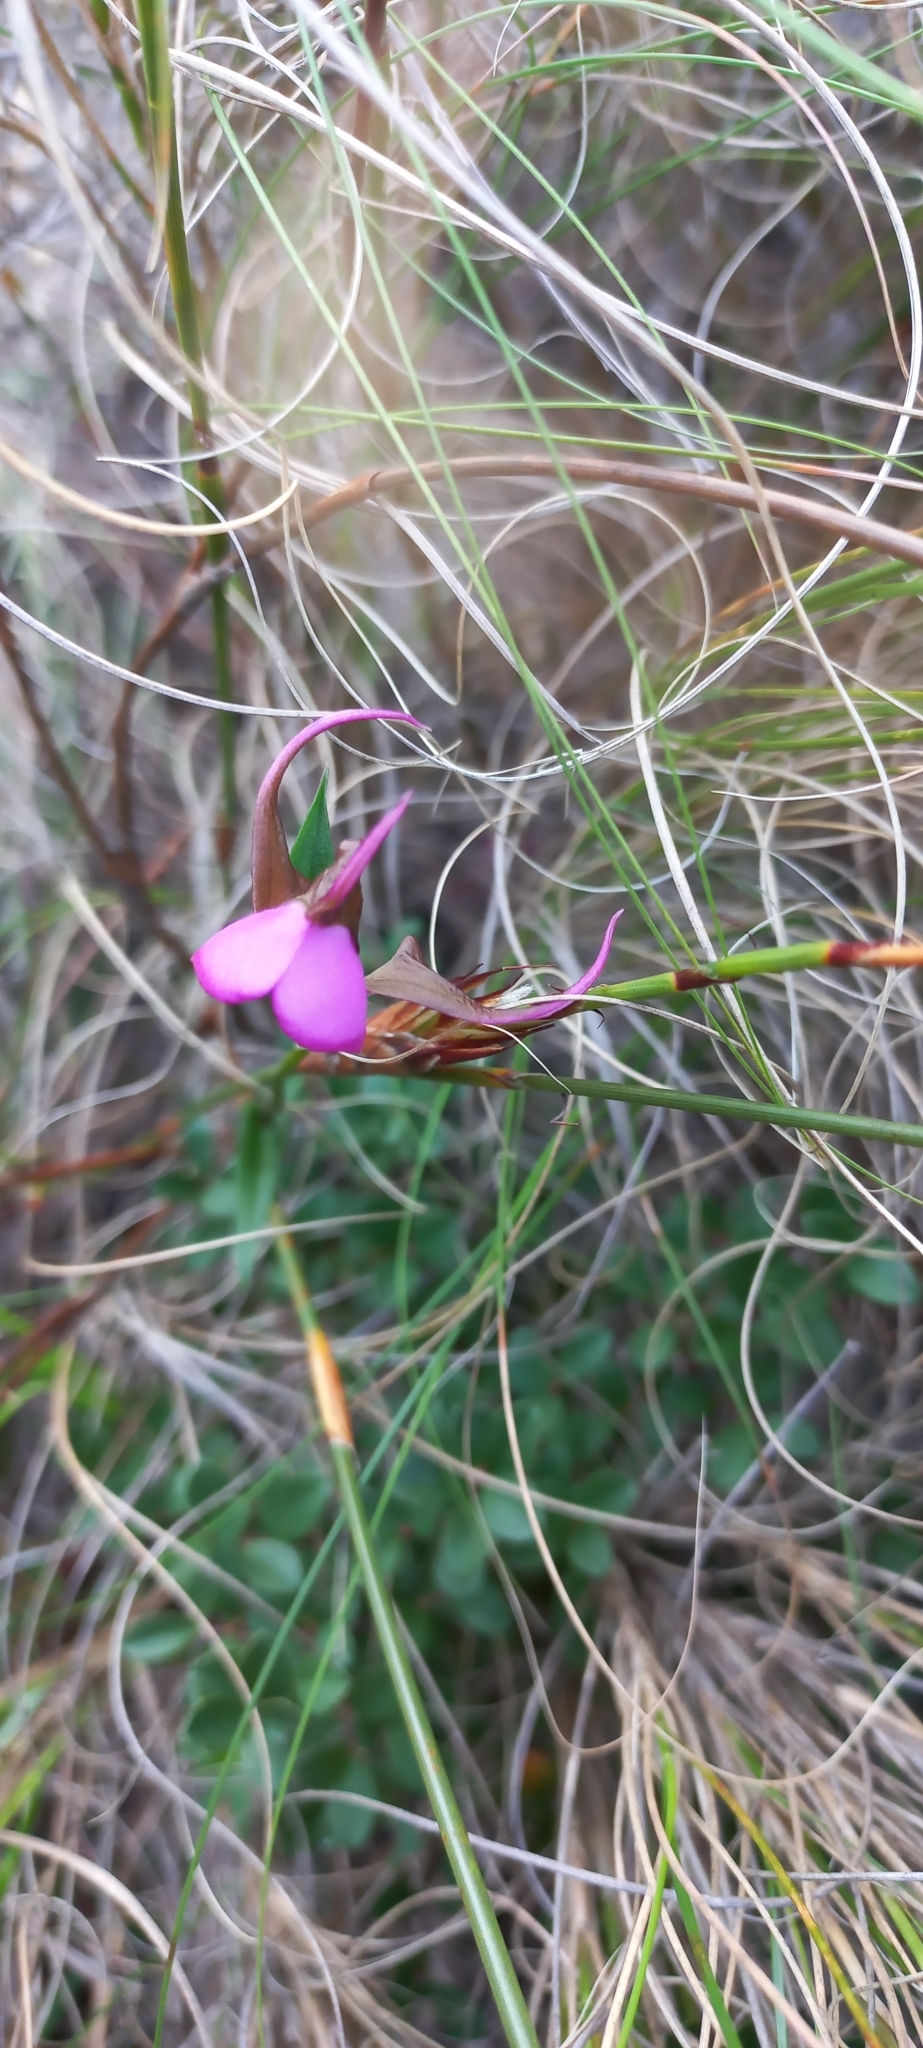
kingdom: Plantae
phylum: Tracheophyta
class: Liliopsida
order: Asparagales
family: Orchidaceae
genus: Disperis
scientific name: Disperis capensis
